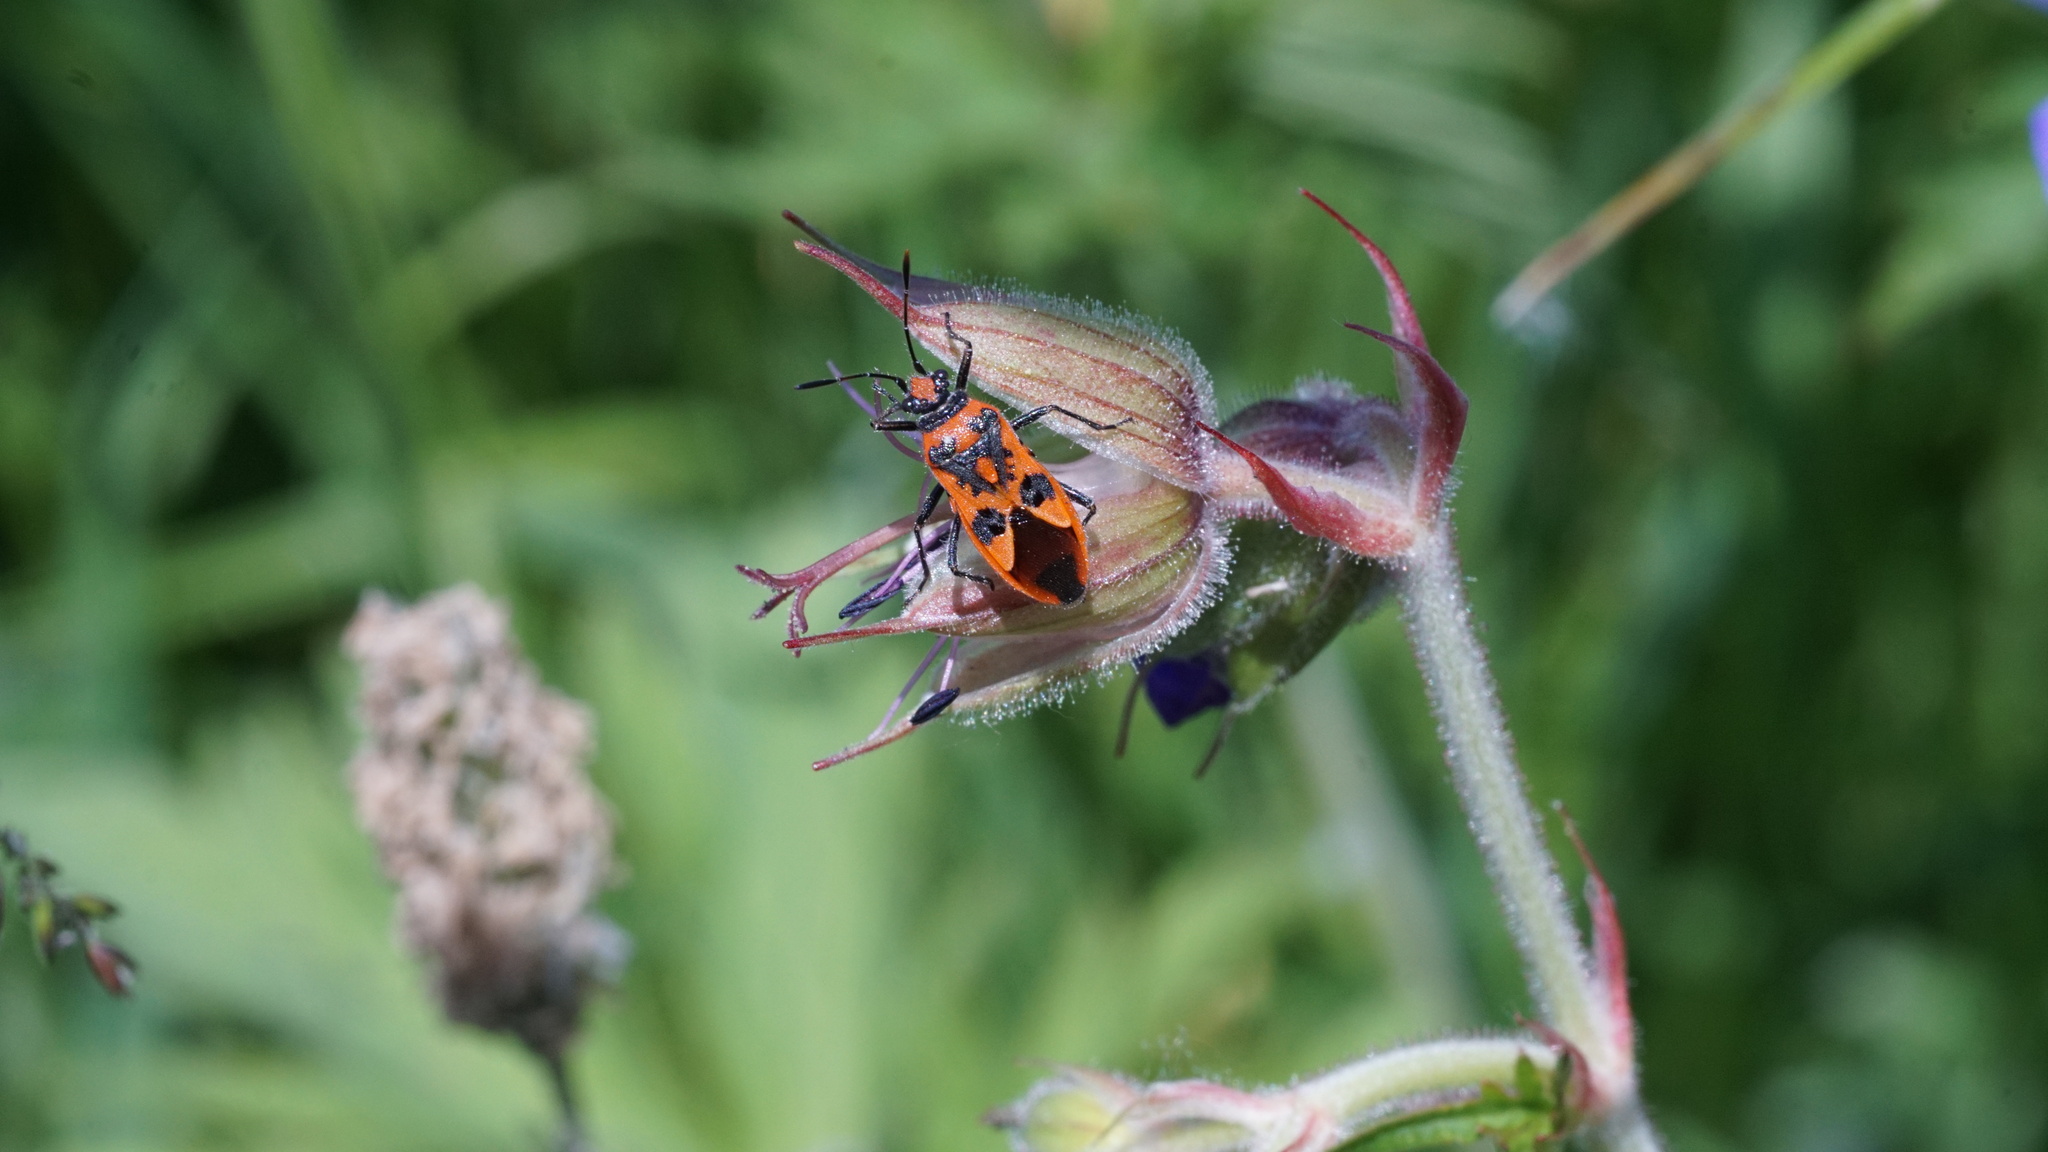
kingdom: Animalia
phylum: Arthropoda
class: Insecta
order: Hemiptera
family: Rhopalidae
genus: Corizus
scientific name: Corizus hyoscyami
